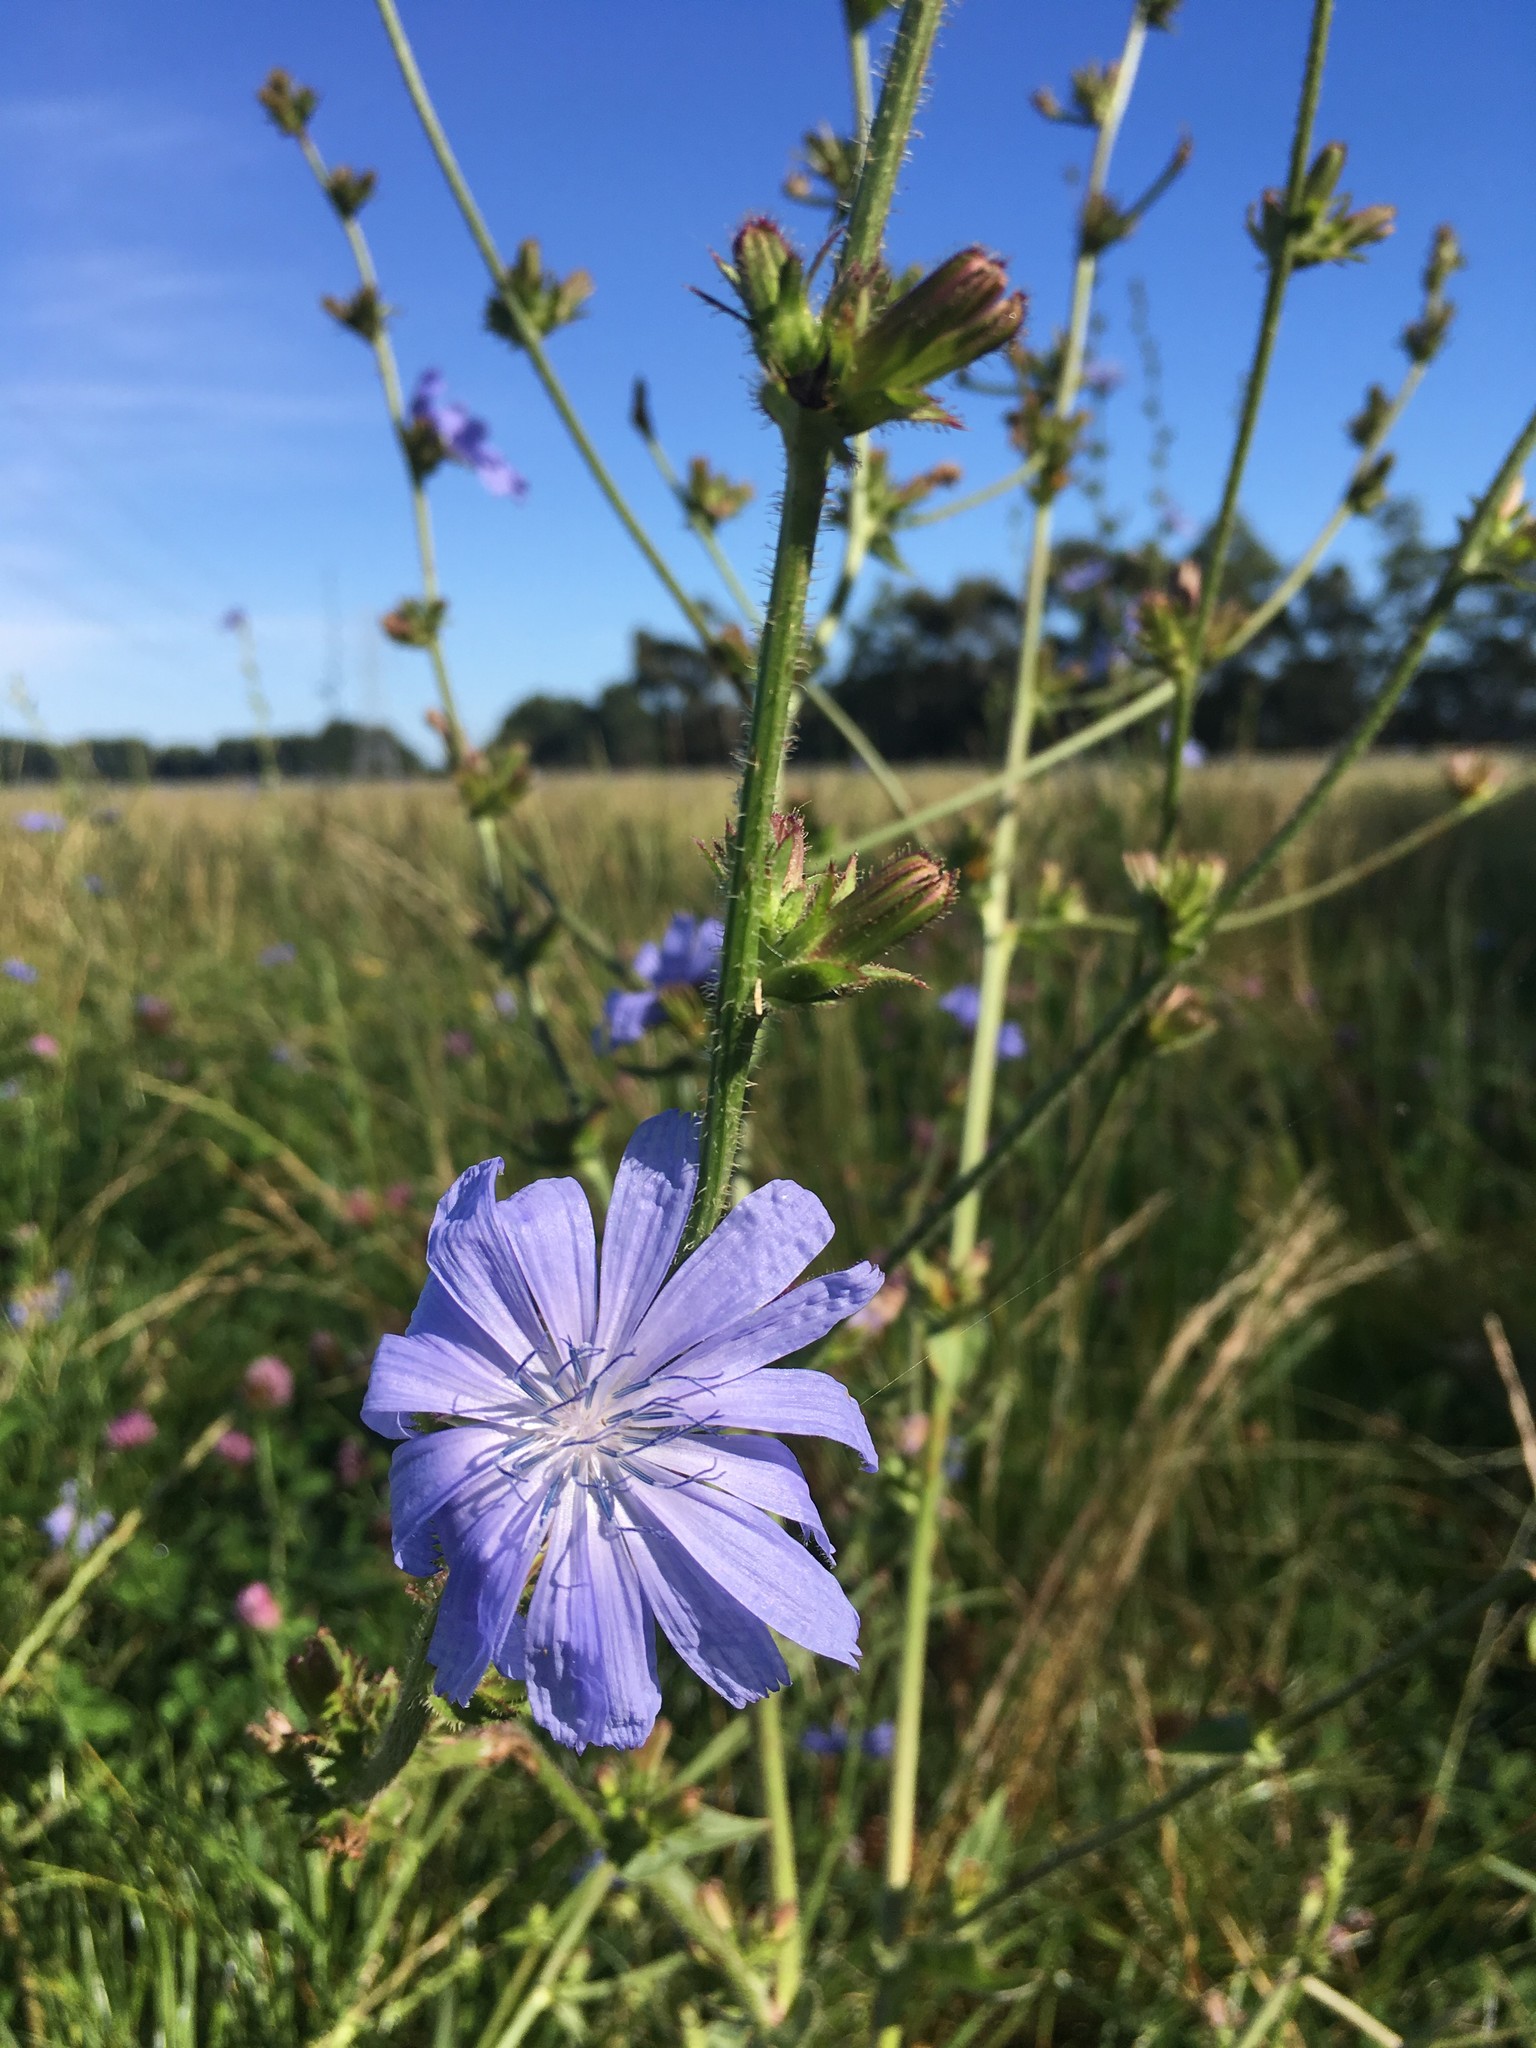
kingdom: Plantae
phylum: Tracheophyta
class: Magnoliopsida
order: Asterales
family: Asteraceae
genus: Cichorium
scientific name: Cichorium intybus
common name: Chicory
